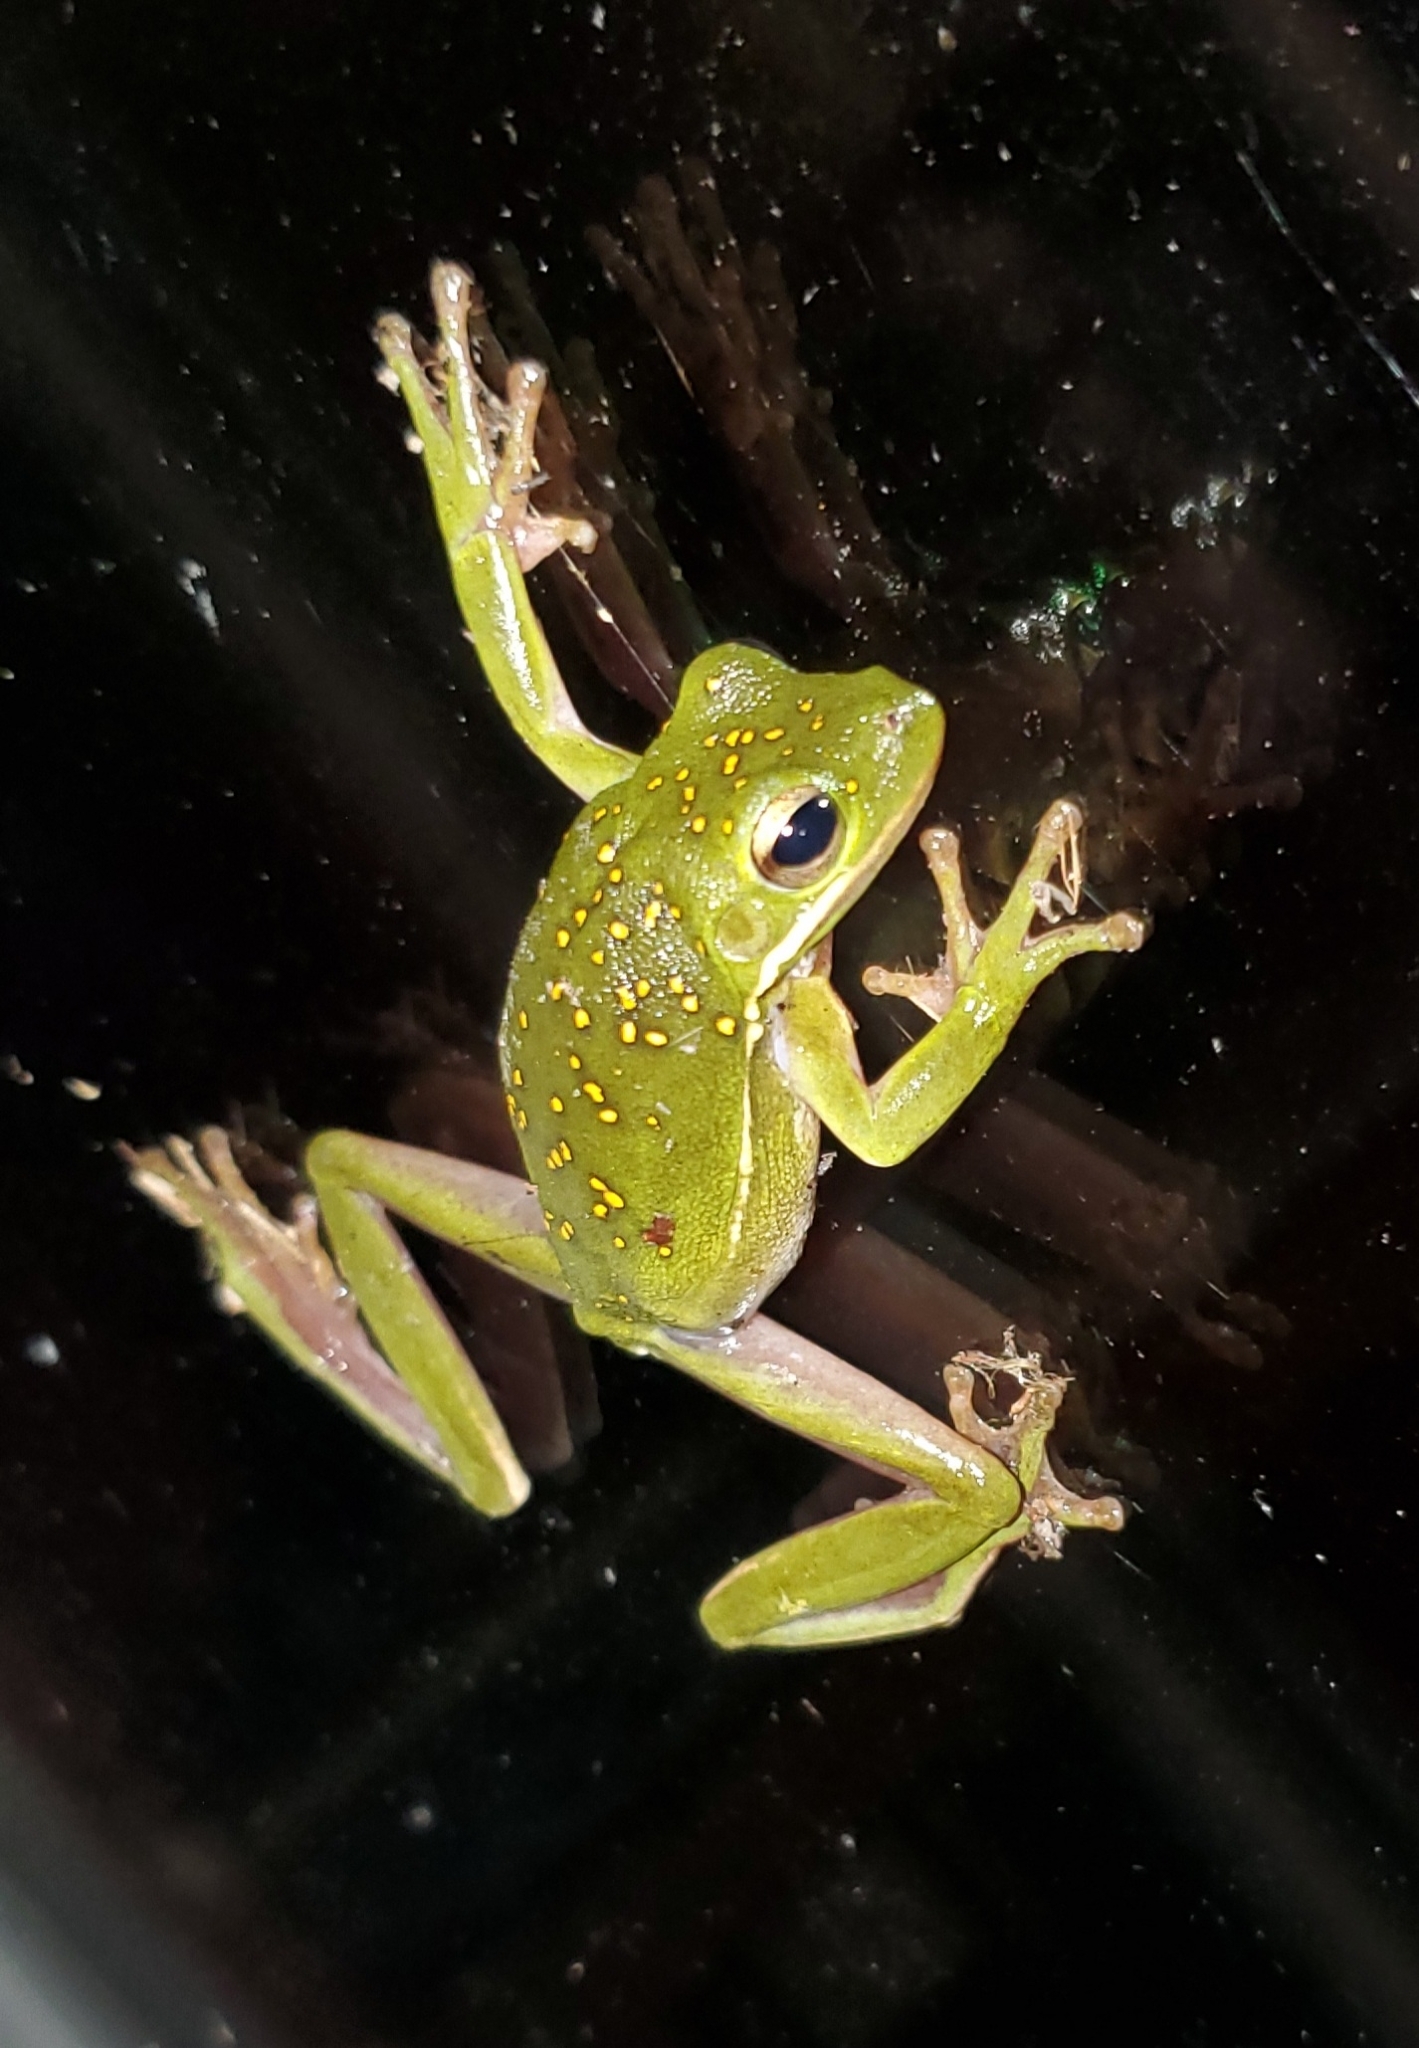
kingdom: Animalia
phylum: Chordata
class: Amphibia
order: Anura
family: Hylidae
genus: Dryophytes
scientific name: Dryophytes cinereus
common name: Green treefrog
